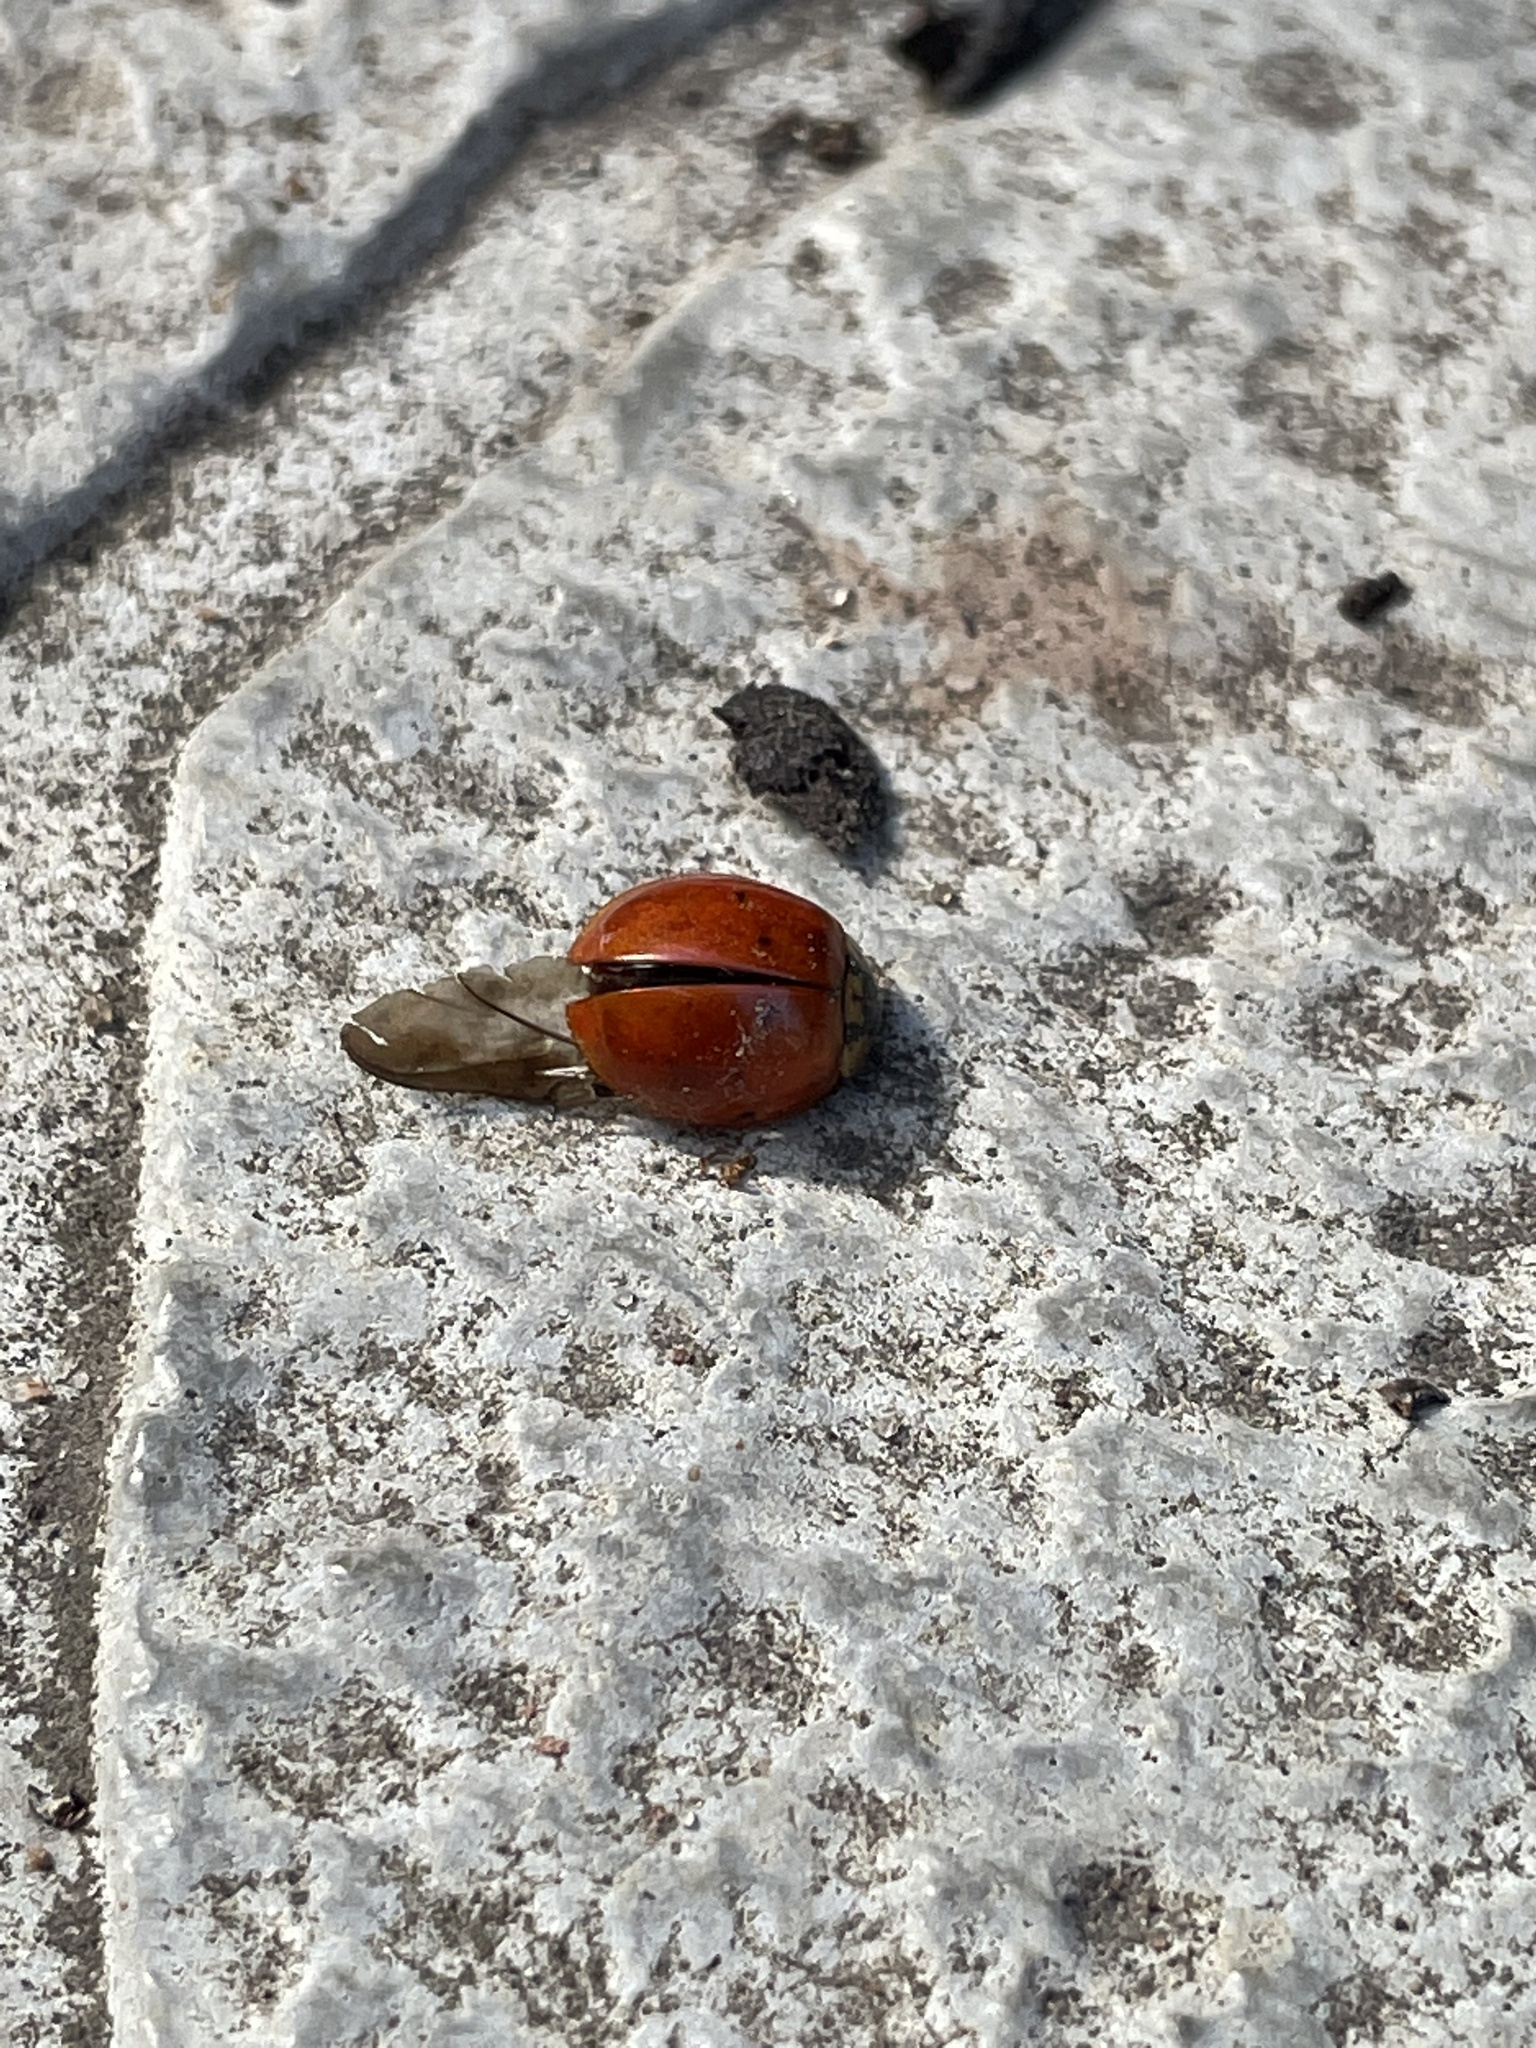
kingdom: Animalia
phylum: Arthropoda
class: Insecta
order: Coleoptera
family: Coccinellidae
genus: Harmonia
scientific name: Harmonia axyridis
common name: Harlequin ladybird
